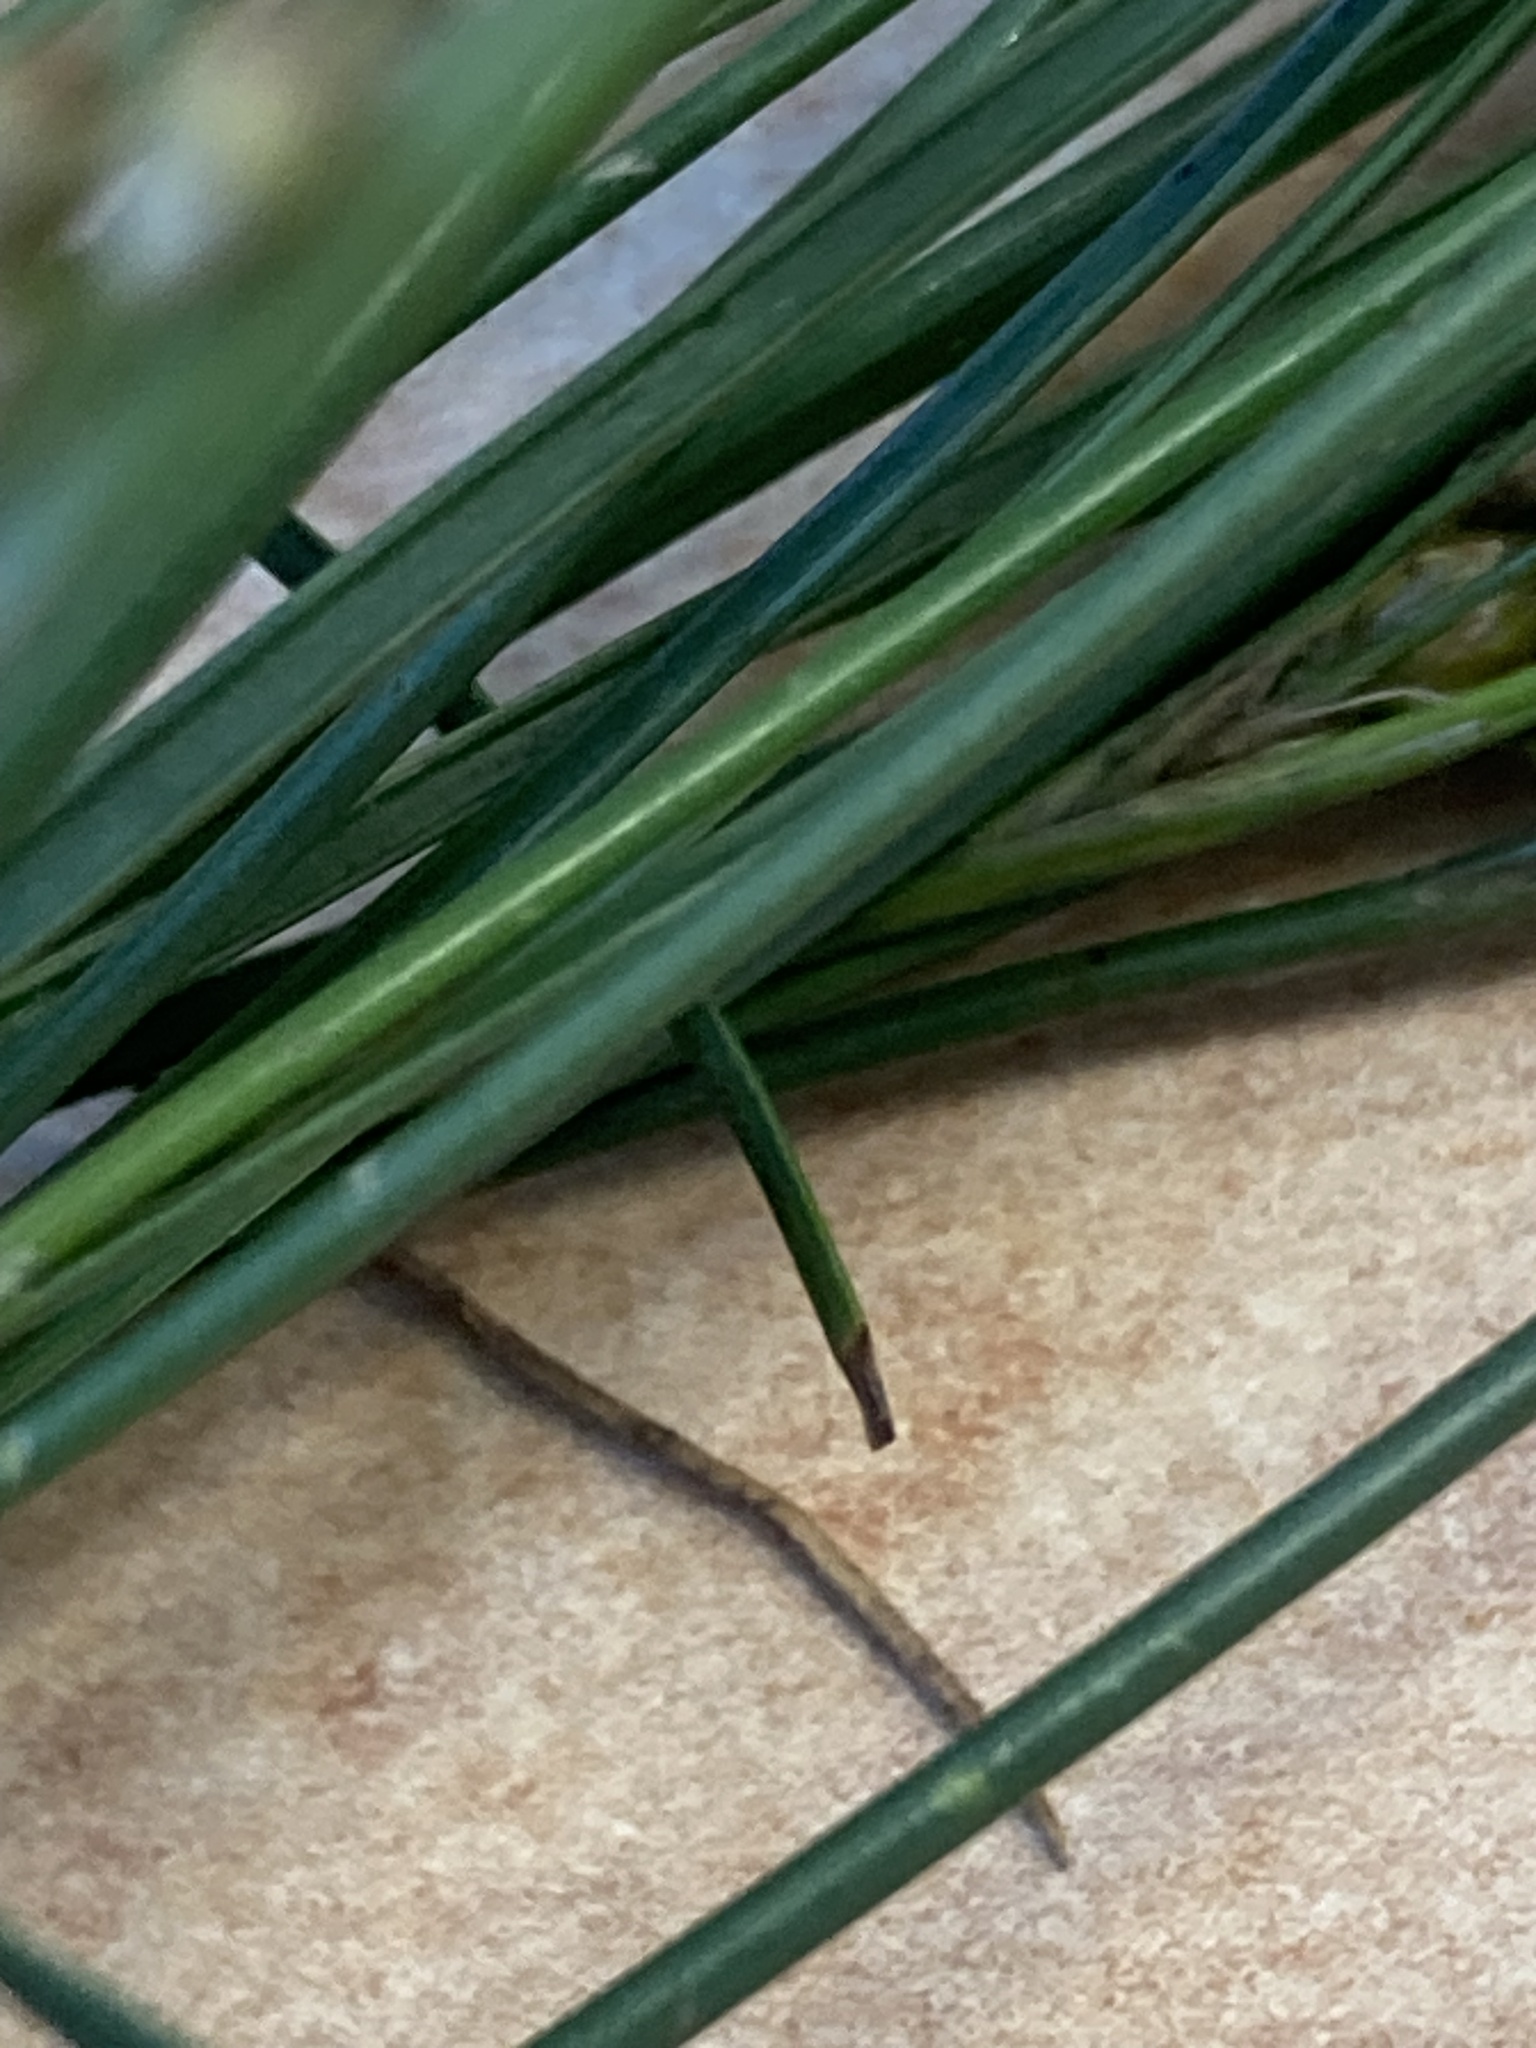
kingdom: Plantae
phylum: Tracheophyta
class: Liliopsida
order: Poales
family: Juncaceae
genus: Juncus
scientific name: Juncus compressus
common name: Round-fruited rush
